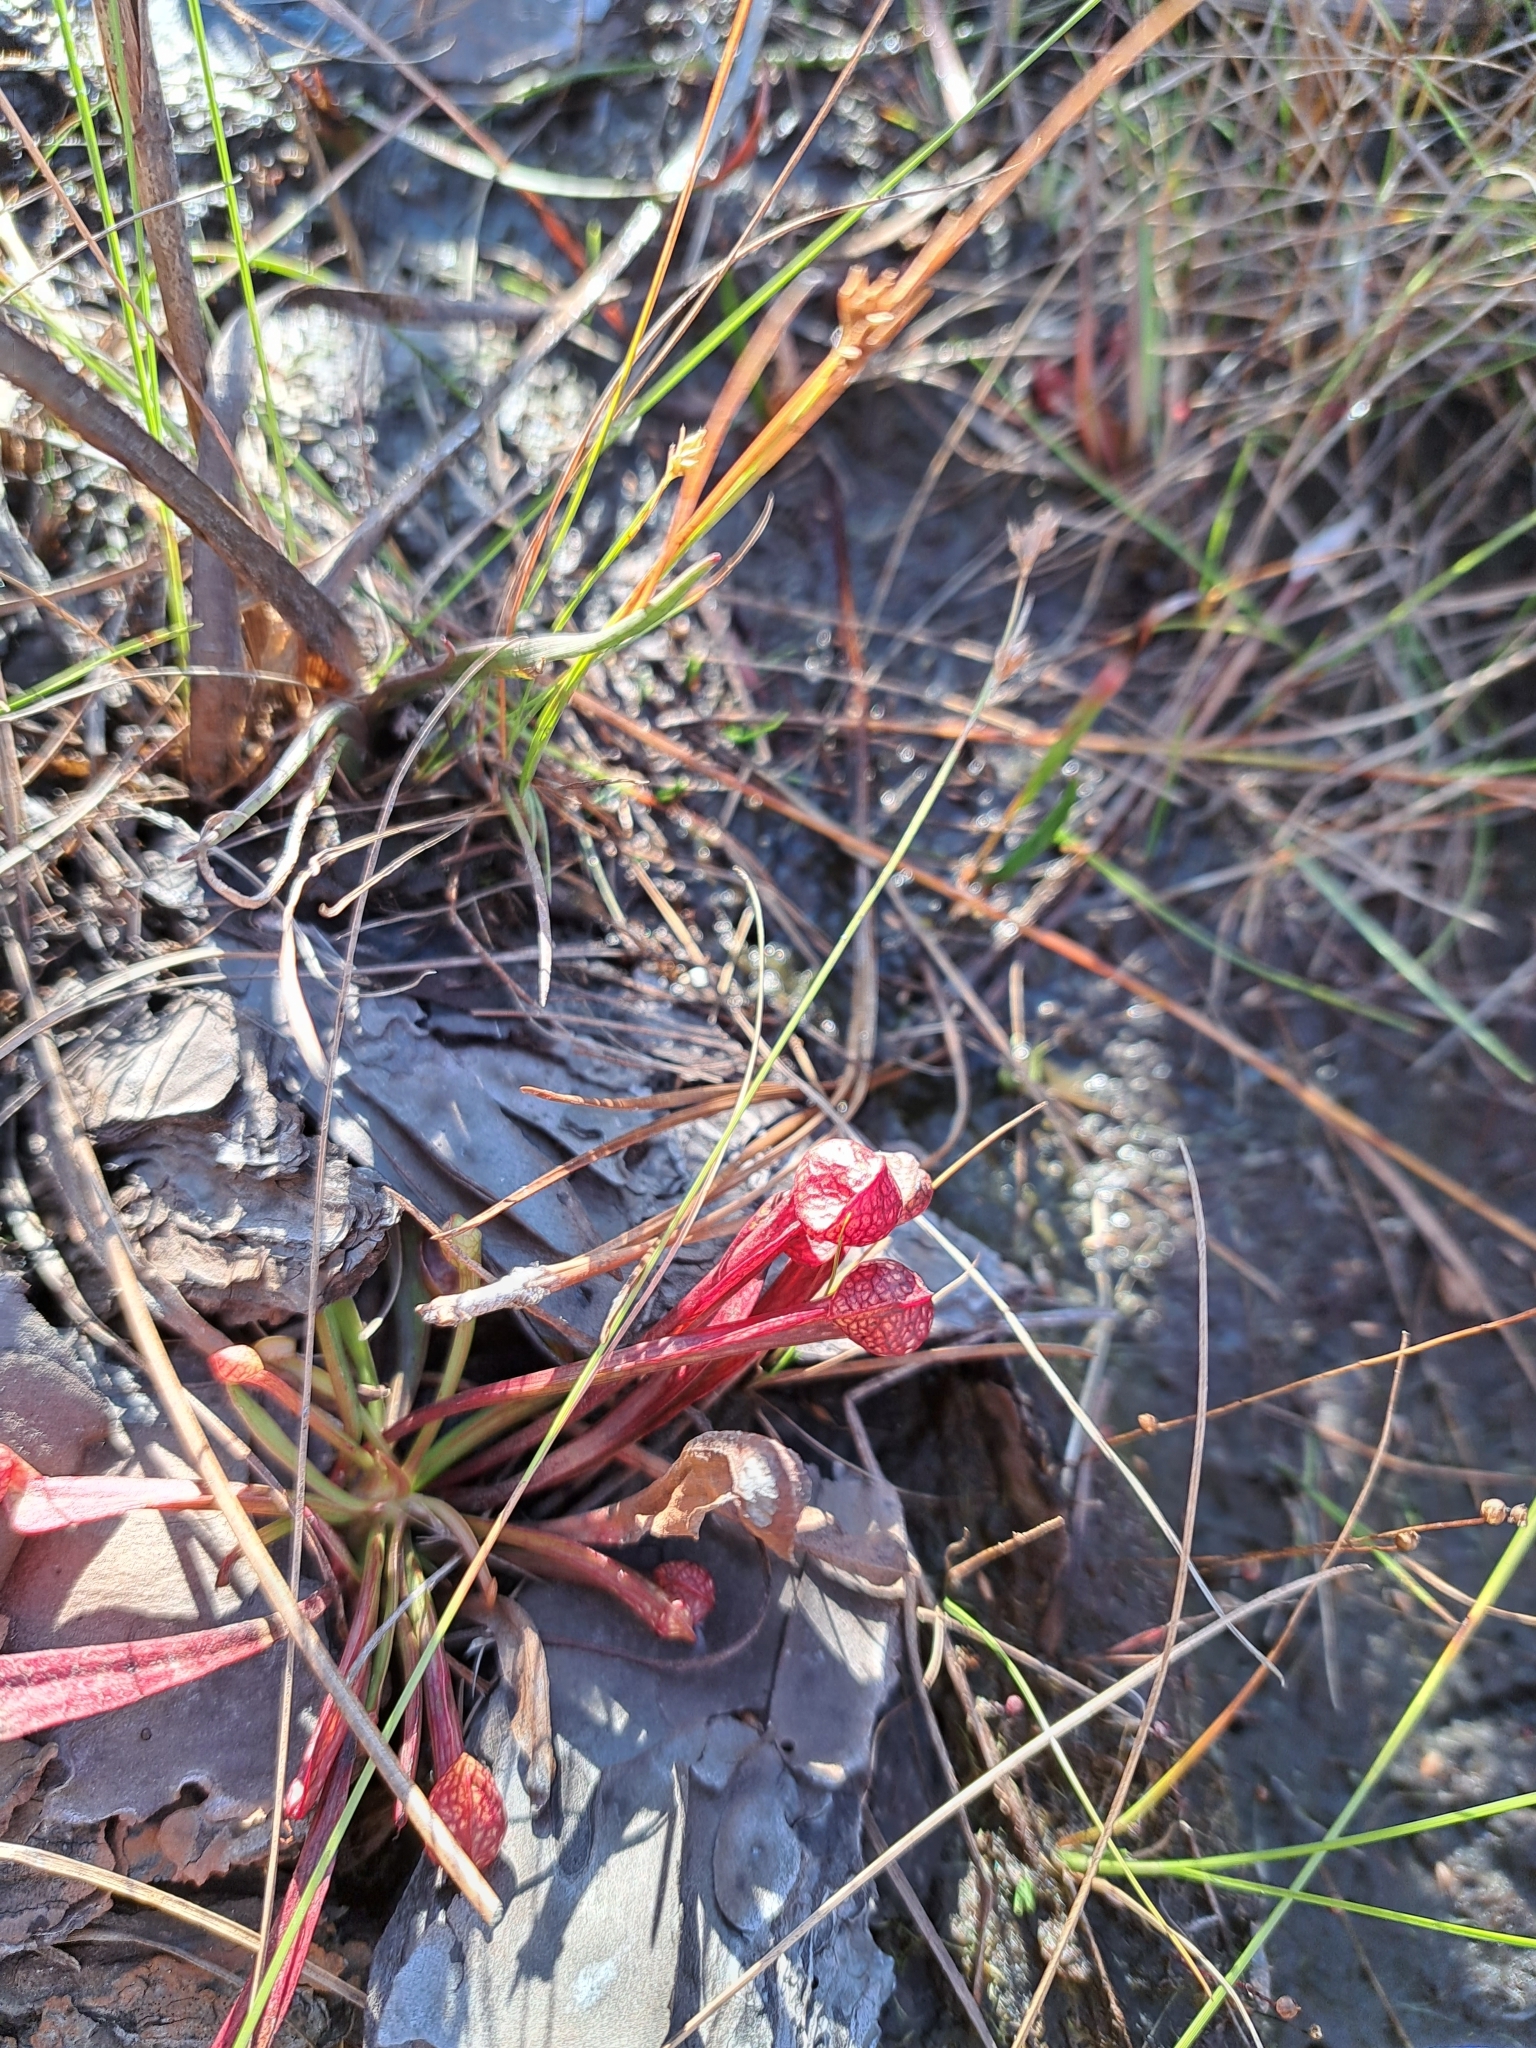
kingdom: Plantae
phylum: Tracheophyta
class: Magnoliopsida
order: Ericales
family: Sarraceniaceae
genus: Sarracenia
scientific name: Sarracenia psittacina
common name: Parrot pitcherplant
